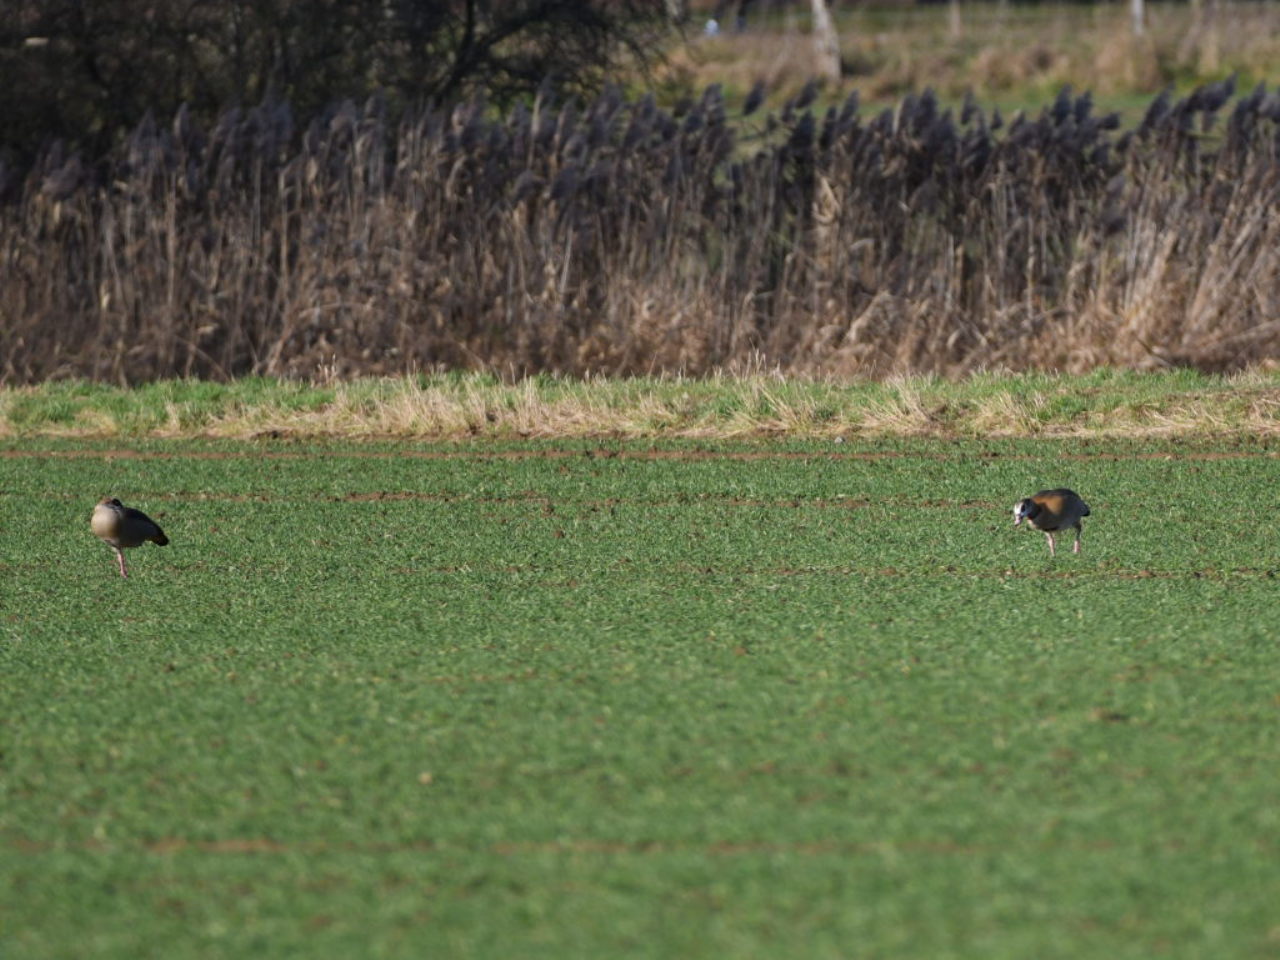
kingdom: Animalia
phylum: Chordata
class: Aves
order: Anseriformes
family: Anatidae
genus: Alopochen
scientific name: Alopochen aegyptiaca
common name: Egyptian goose
